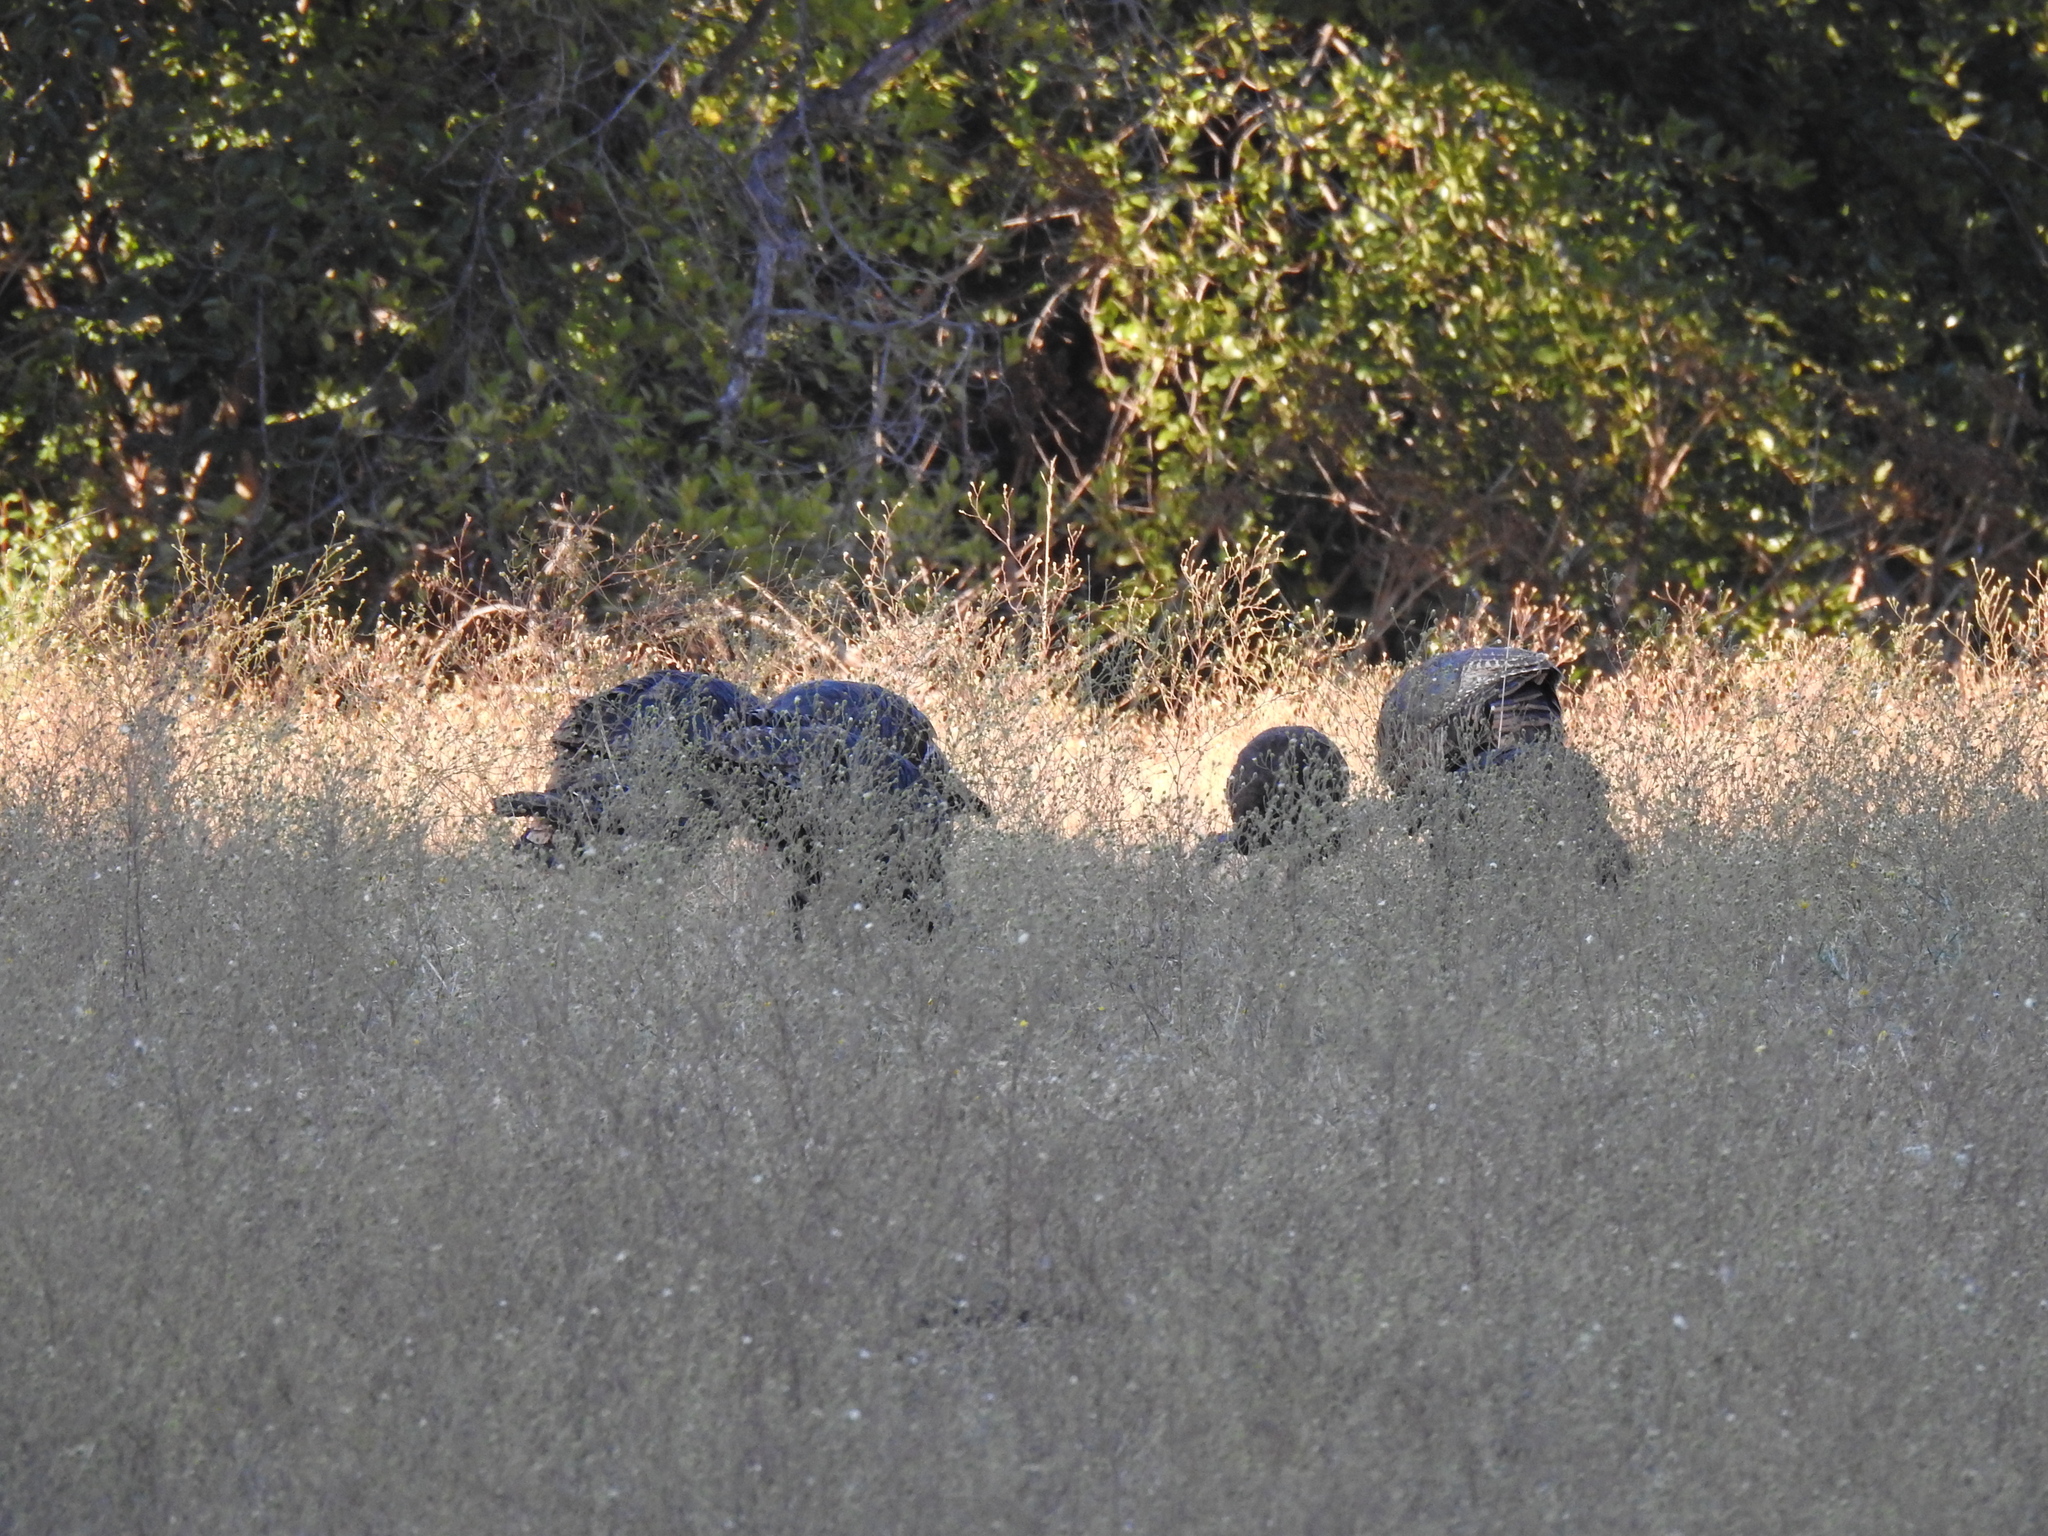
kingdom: Animalia
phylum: Chordata
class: Aves
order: Galliformes
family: Phasianidae
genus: Meleagris
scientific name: Meleagris gallopavo
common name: Wild turkey
